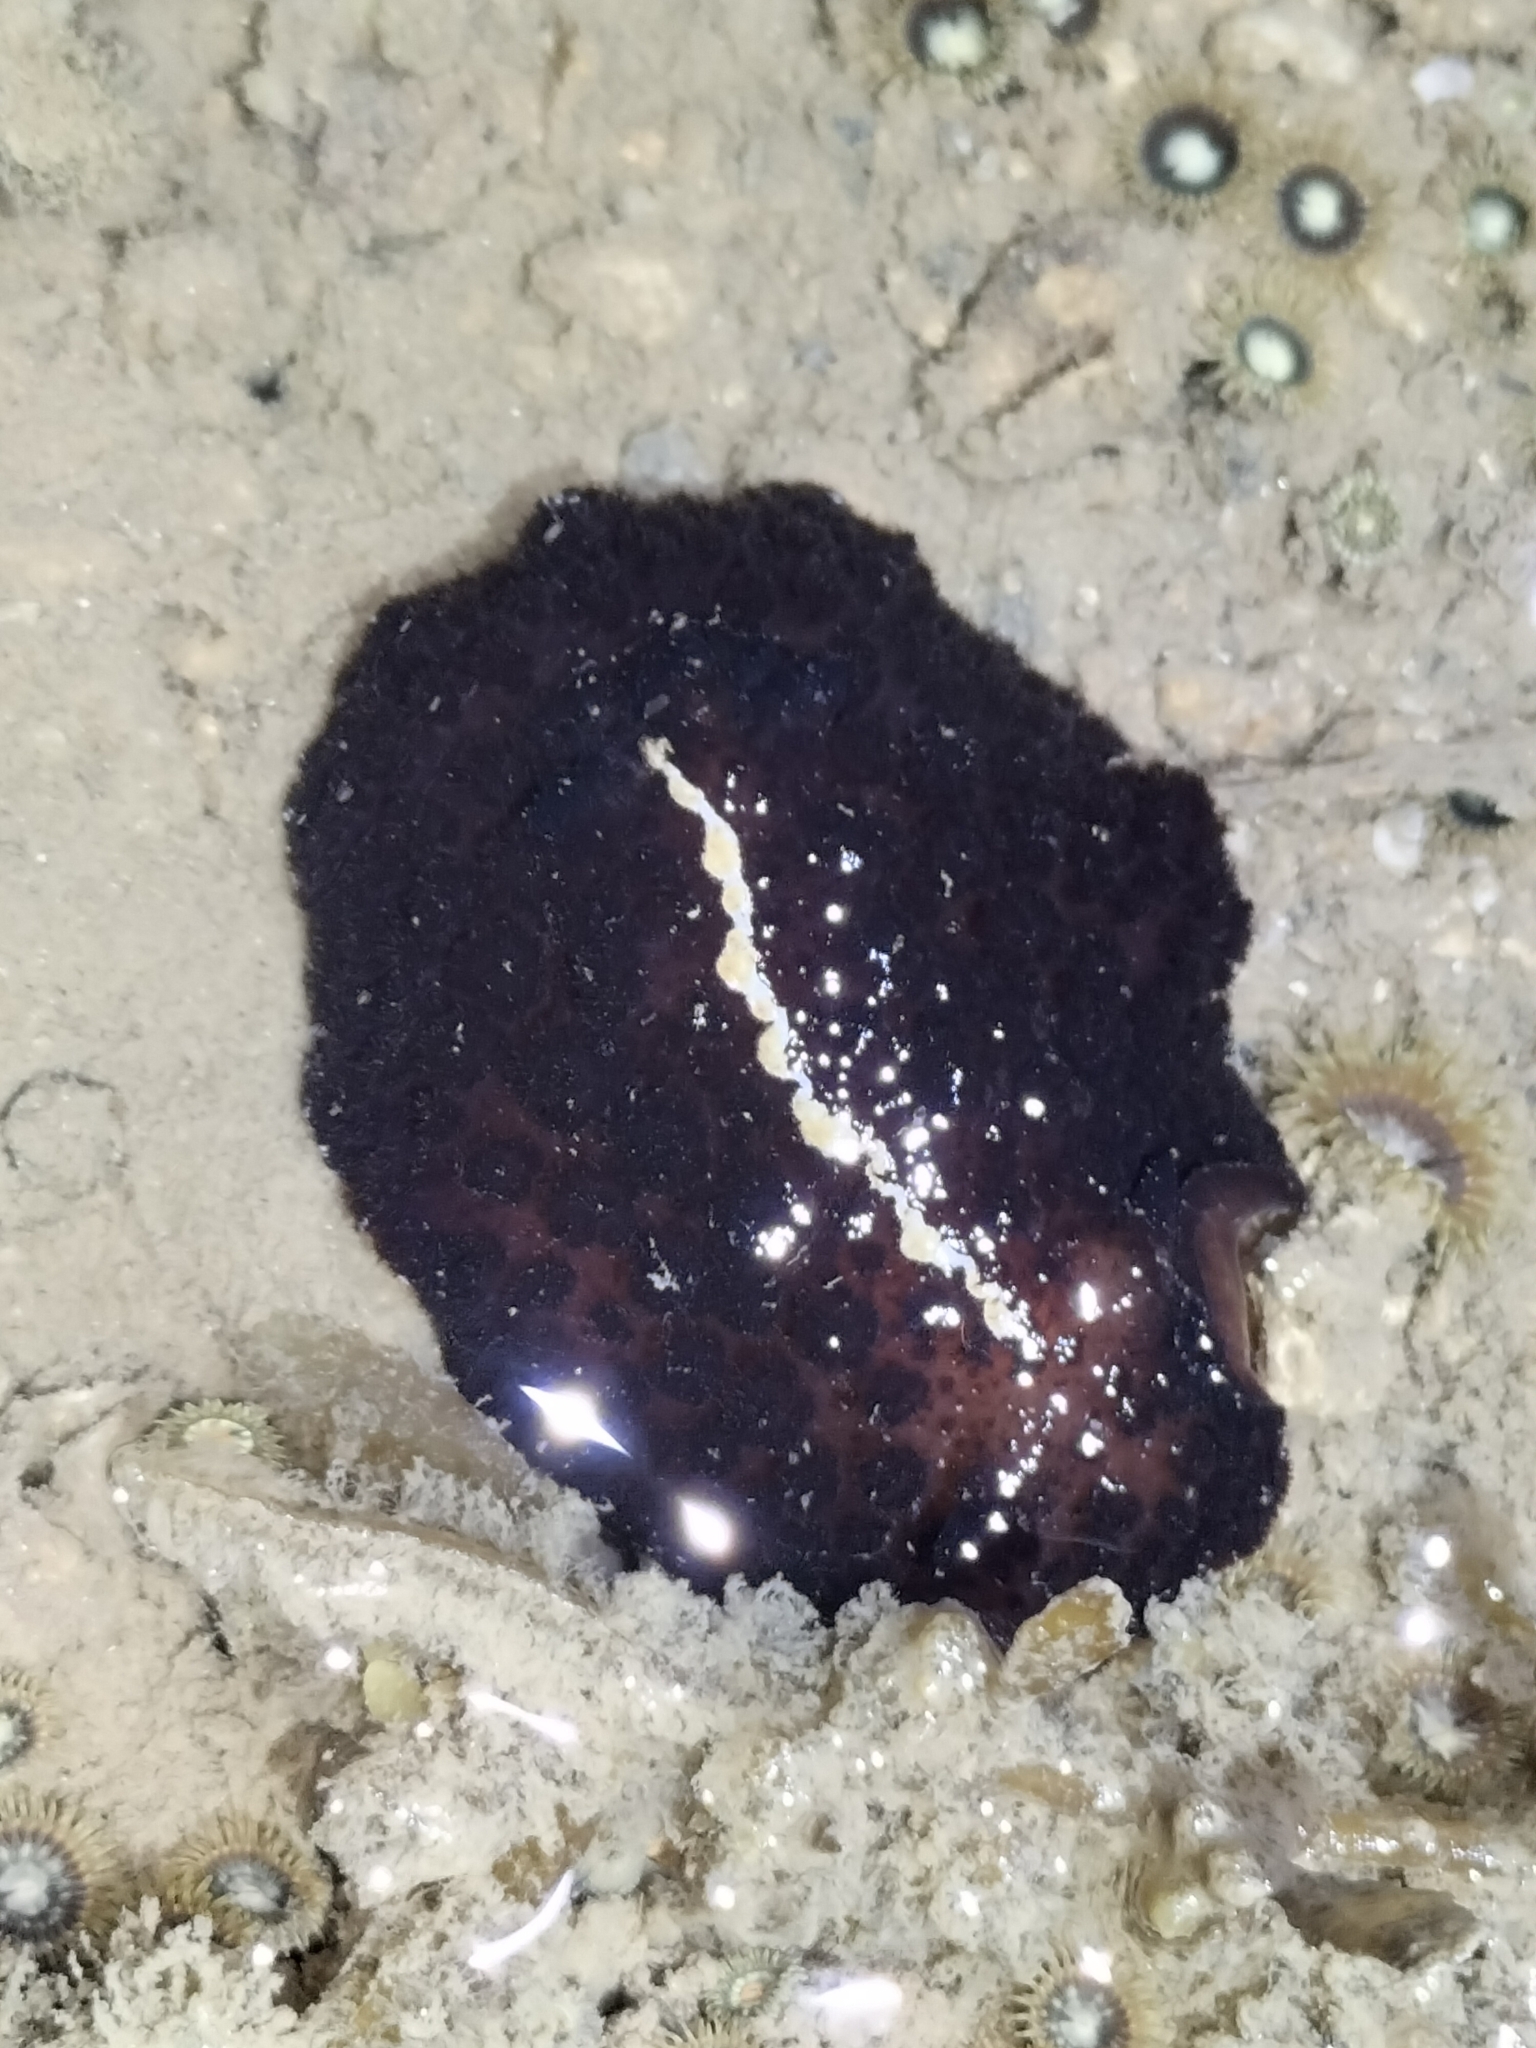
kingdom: Animalia
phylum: Mollusca
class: Gastropoda
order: Nudibranchia
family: Discodorididae
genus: Atagema
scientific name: Atagema intecta
